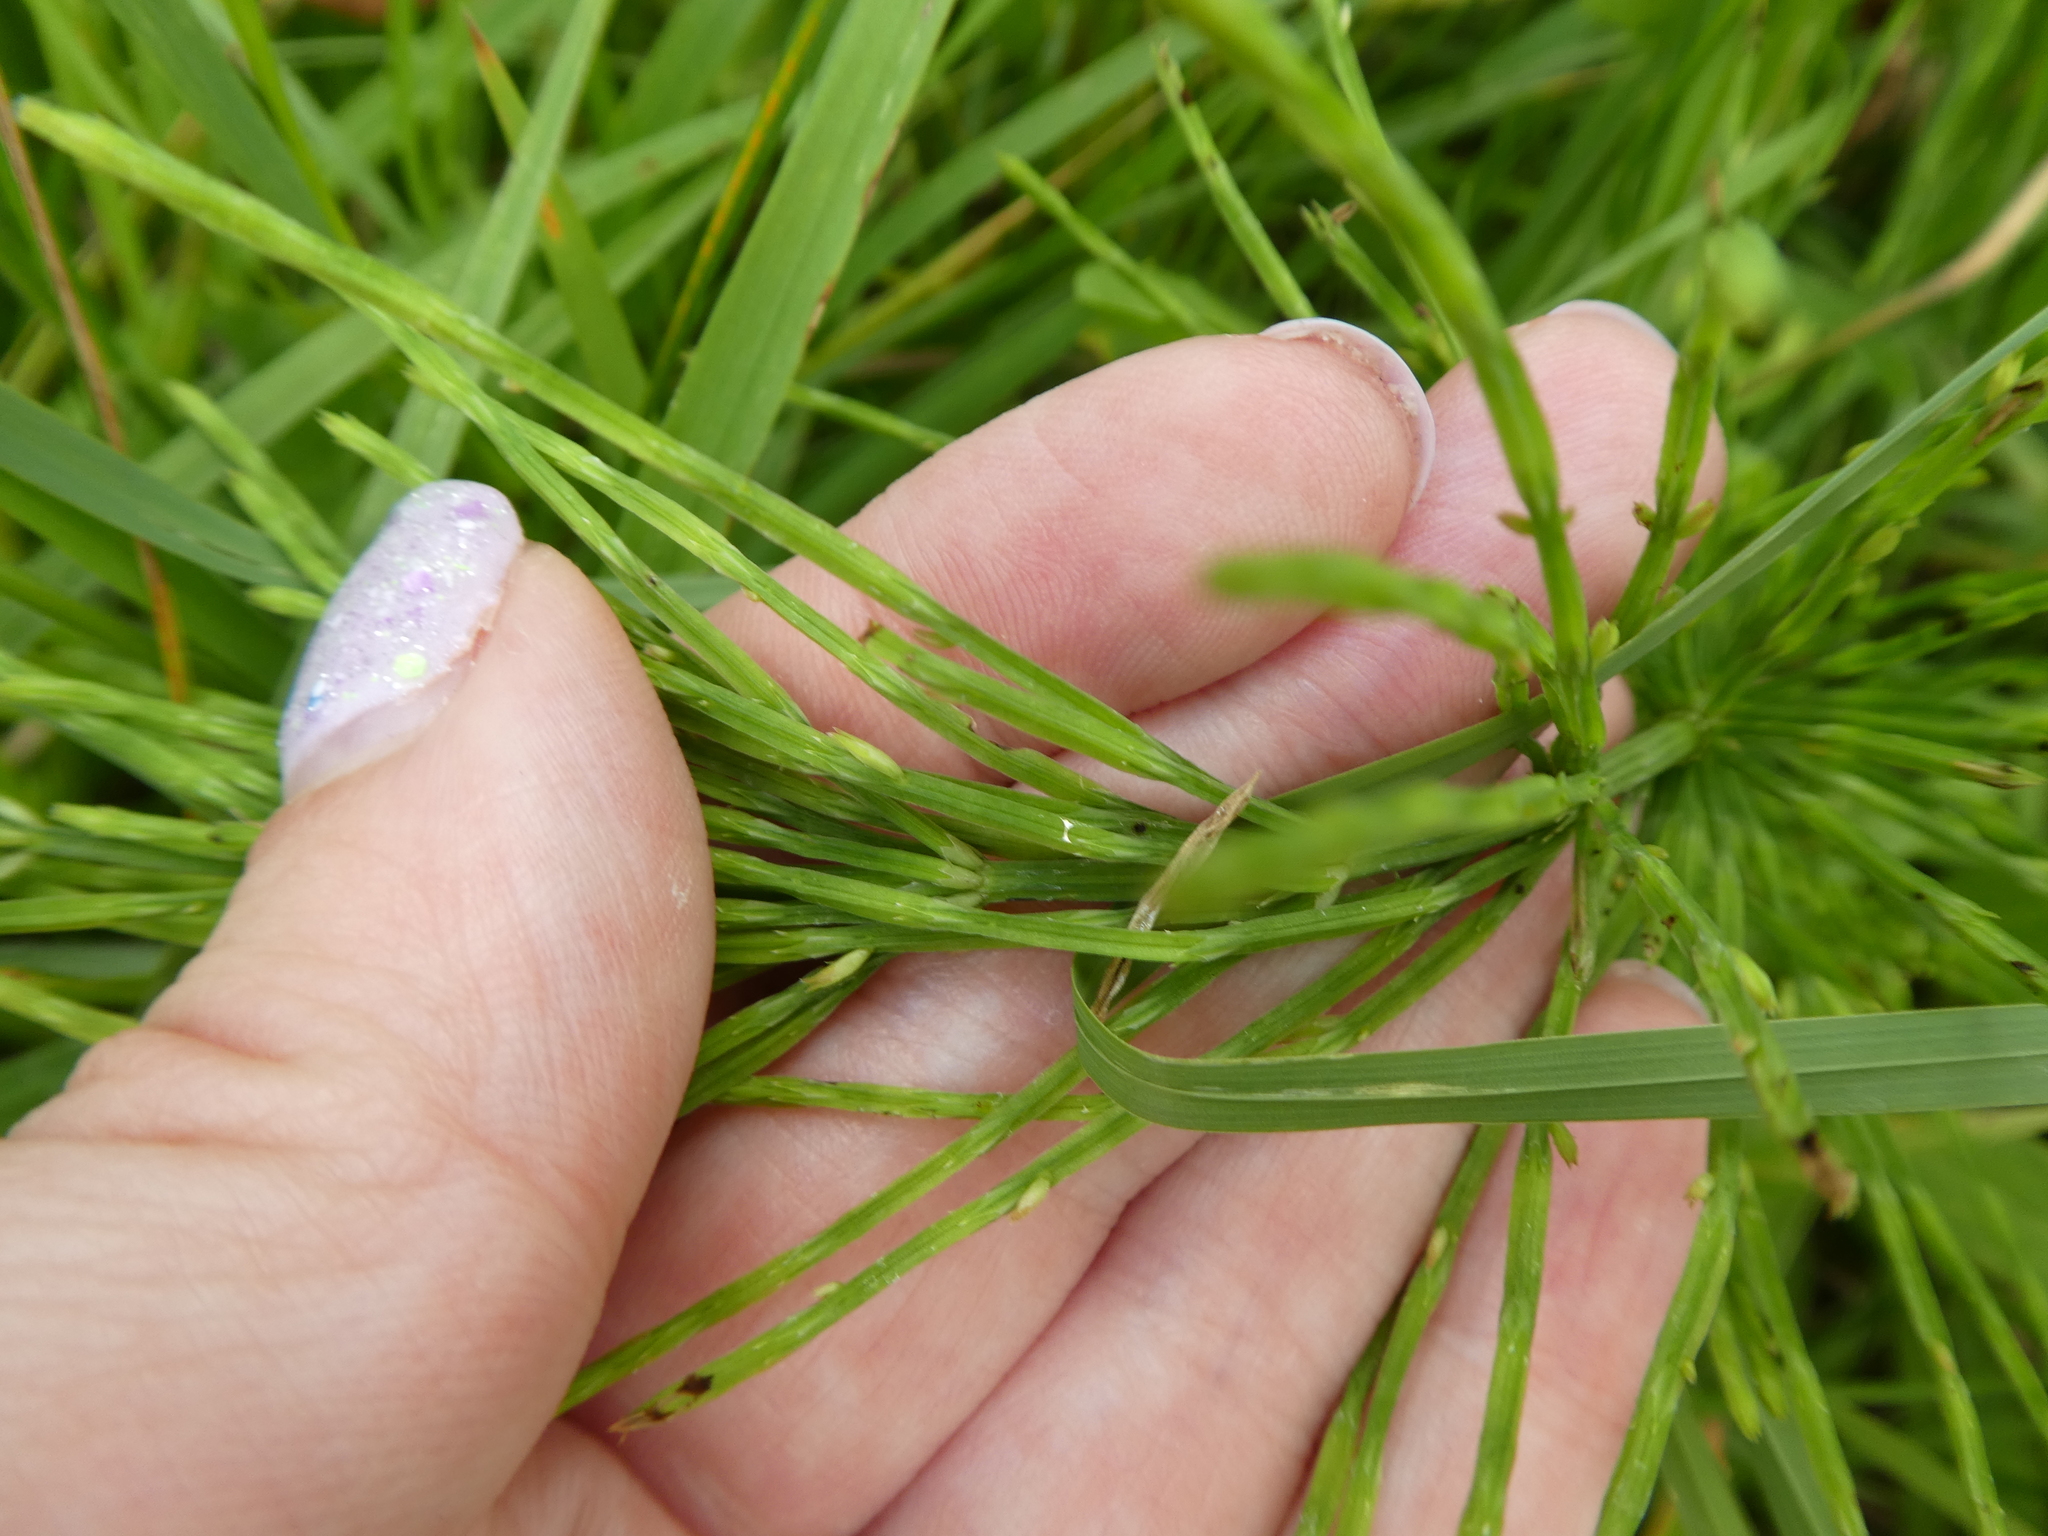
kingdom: Plantae
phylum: Tracheophyta
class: Polypodiopsida
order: Equisetales
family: Equisetaceae
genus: Equisetum
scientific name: Equisetum arvense
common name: Field horsetail
